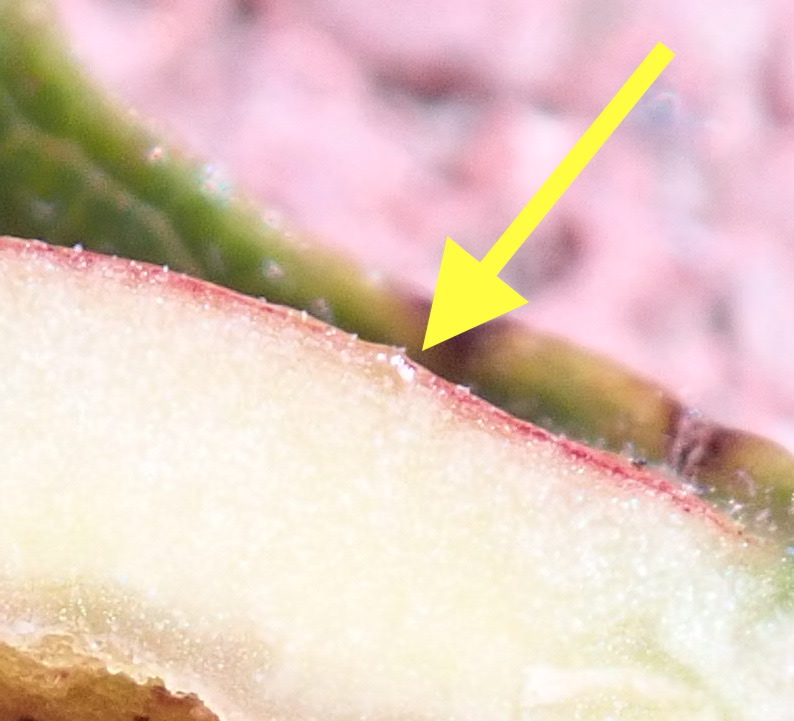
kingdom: Animalia
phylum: Arthropoda
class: Insecta
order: Hymenoptera
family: Tenthredinidae
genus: Euura
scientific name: Euura
